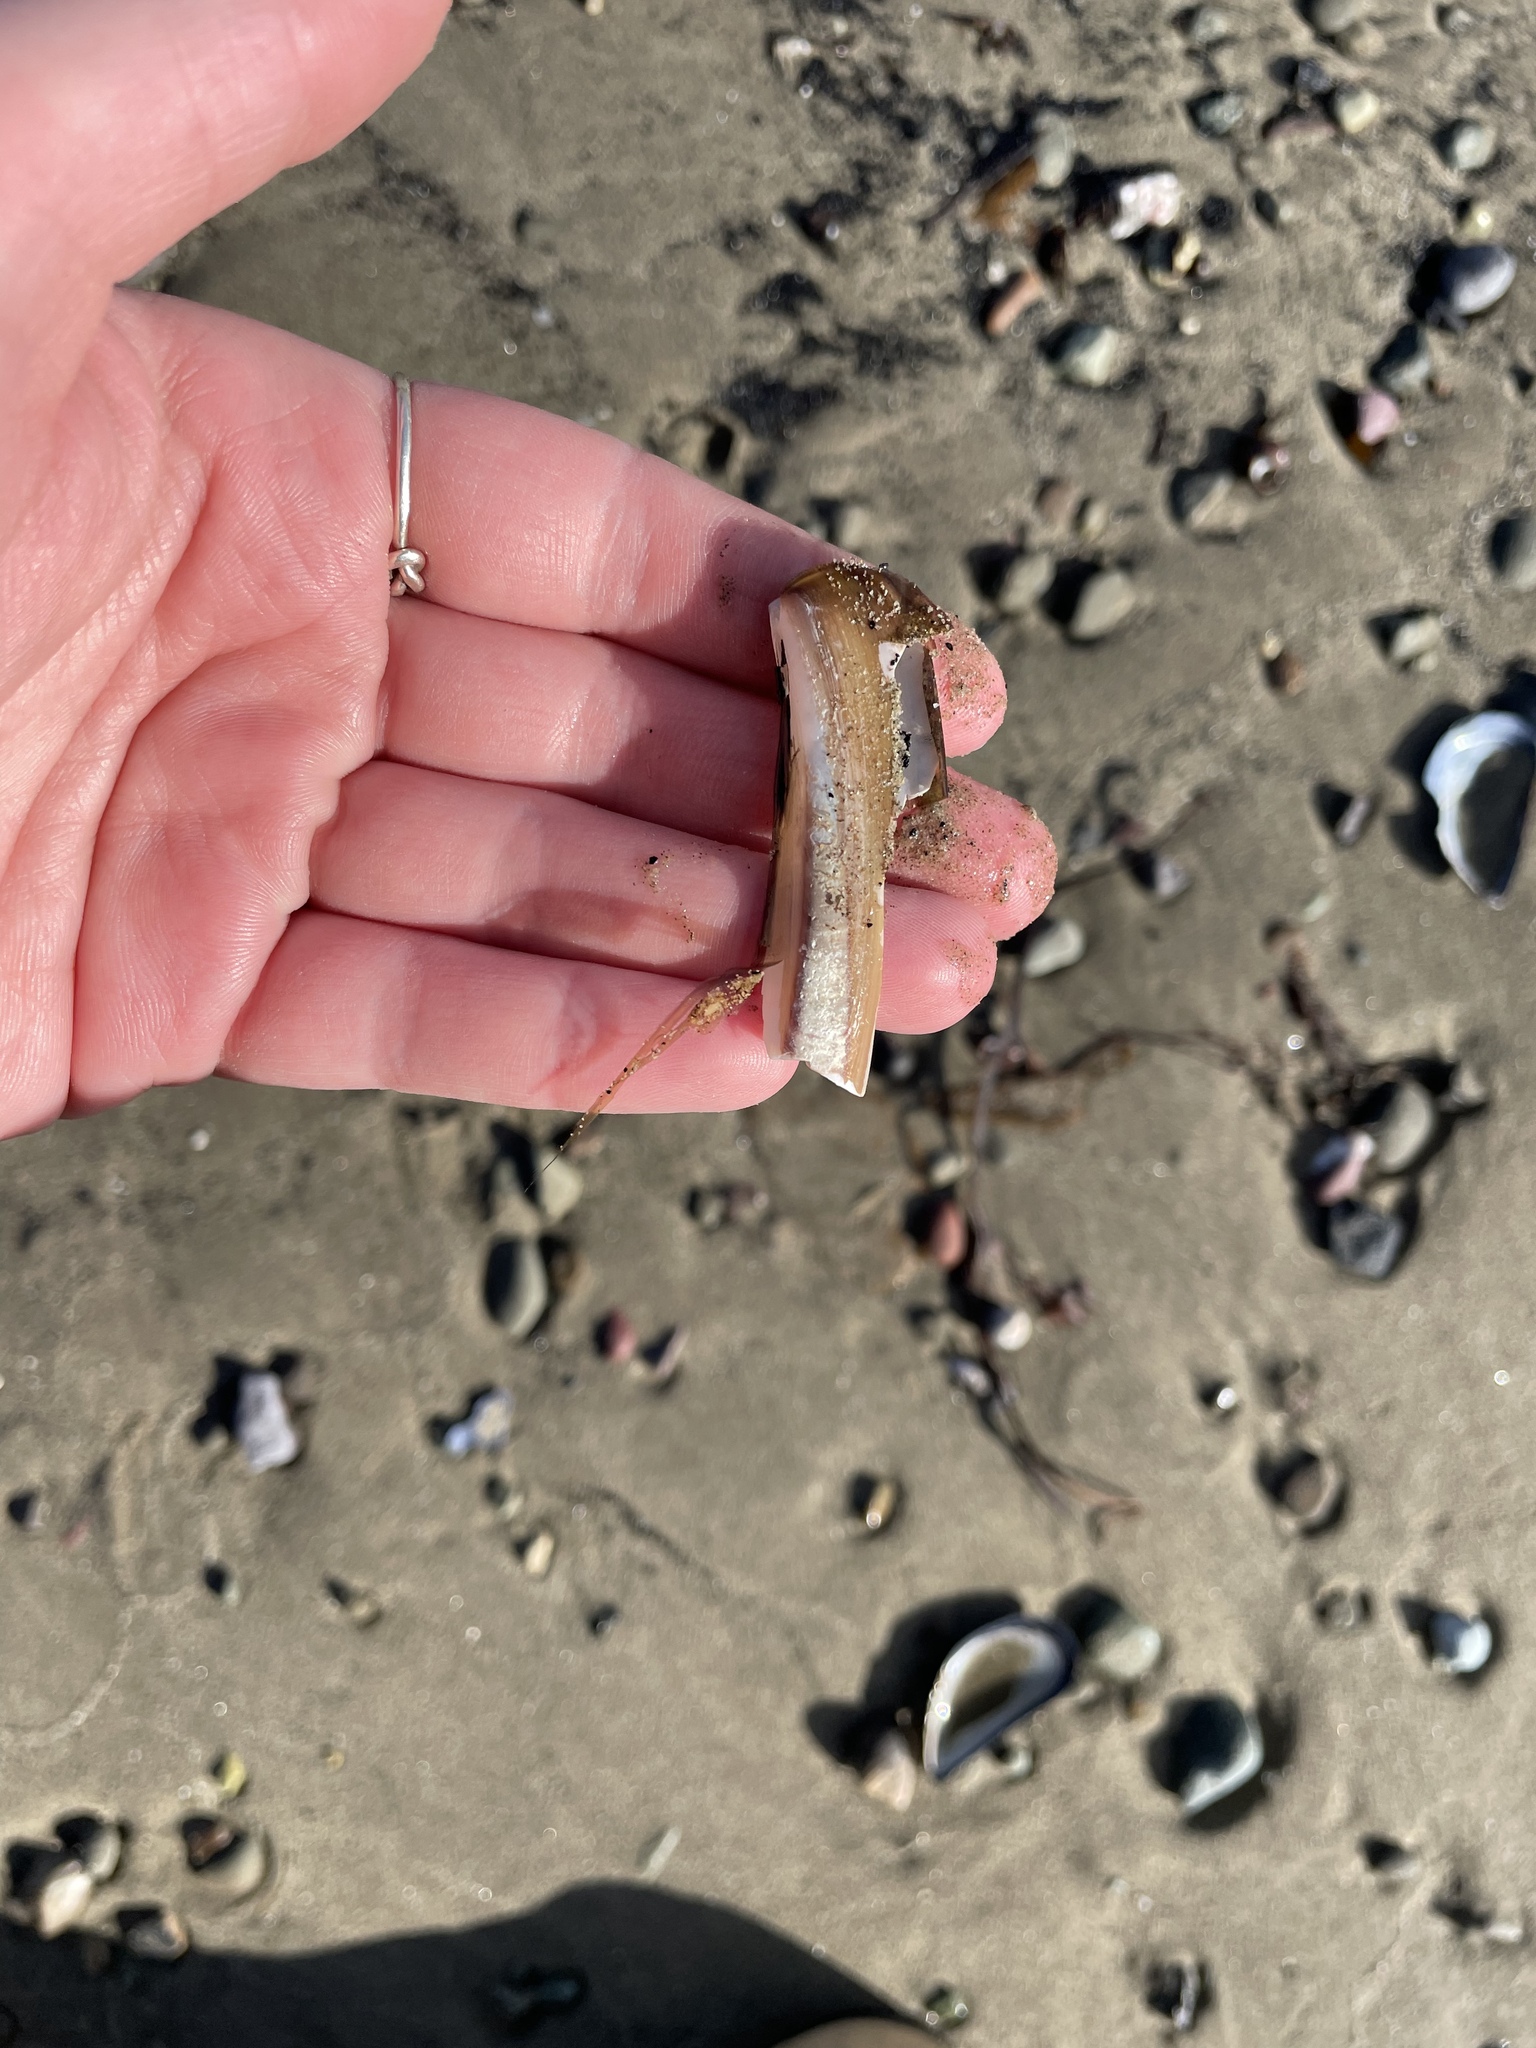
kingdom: Animalia
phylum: Mollusca
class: Bivalvia
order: Adapedonta
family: Pharidae
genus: Ensis
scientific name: Ensis leei
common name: American jack knife clam
